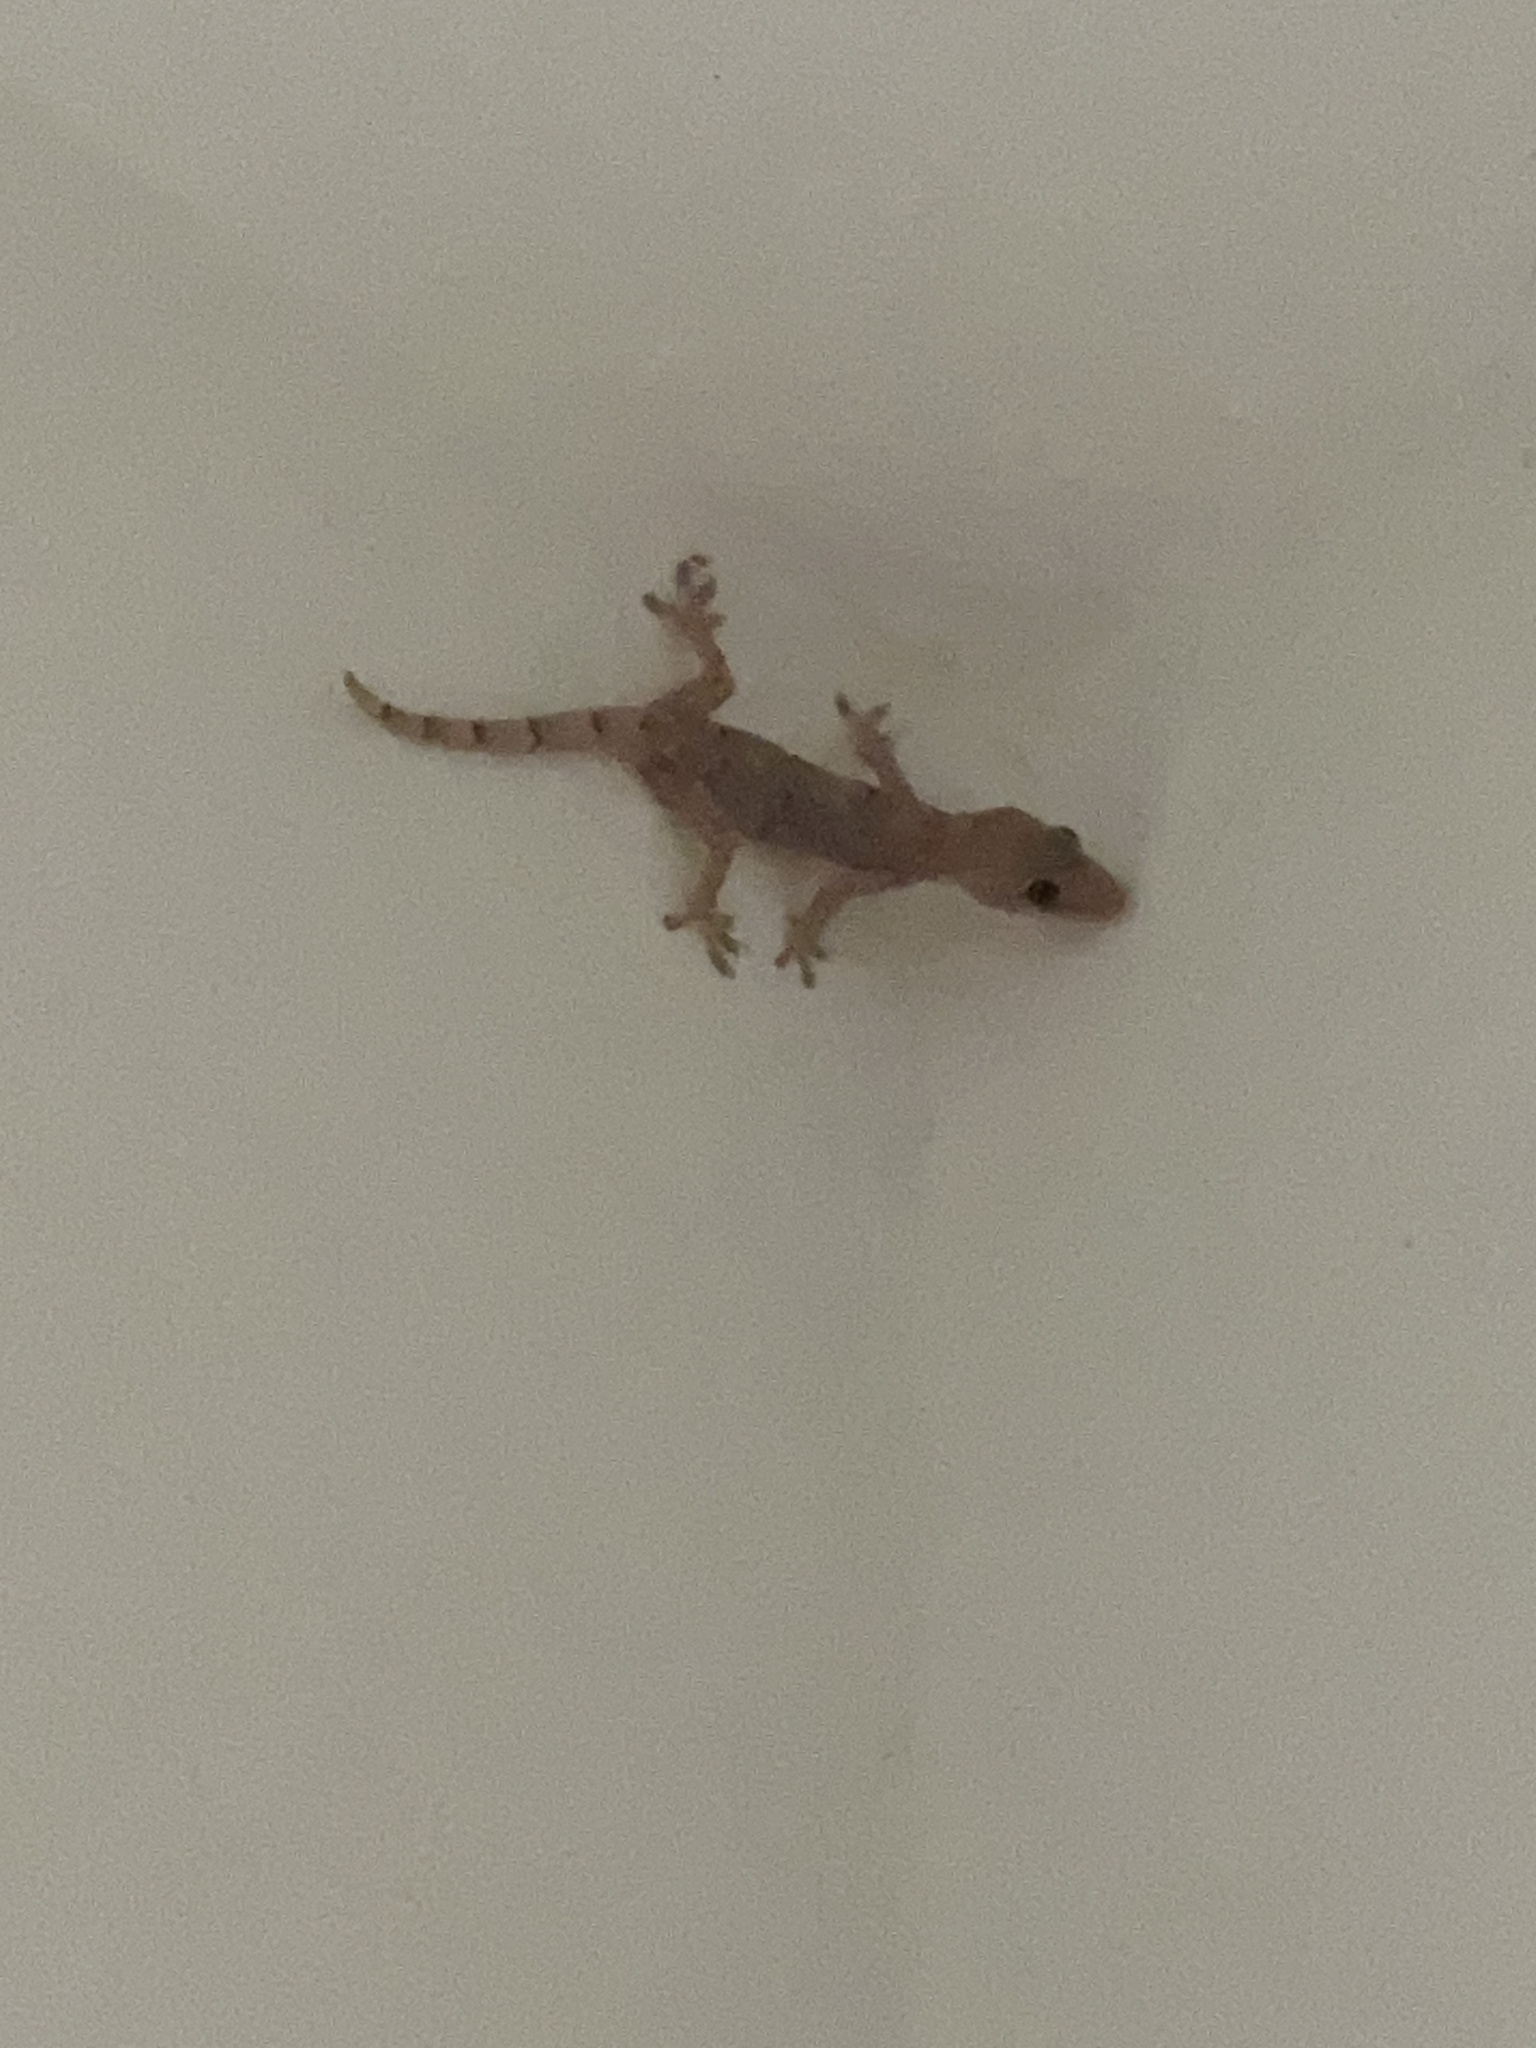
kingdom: Animalia
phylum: Chordata
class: Squamata
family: Gekkonidae
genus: Hemidactylus
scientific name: Hemidactylus mabouia
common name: House gecko
